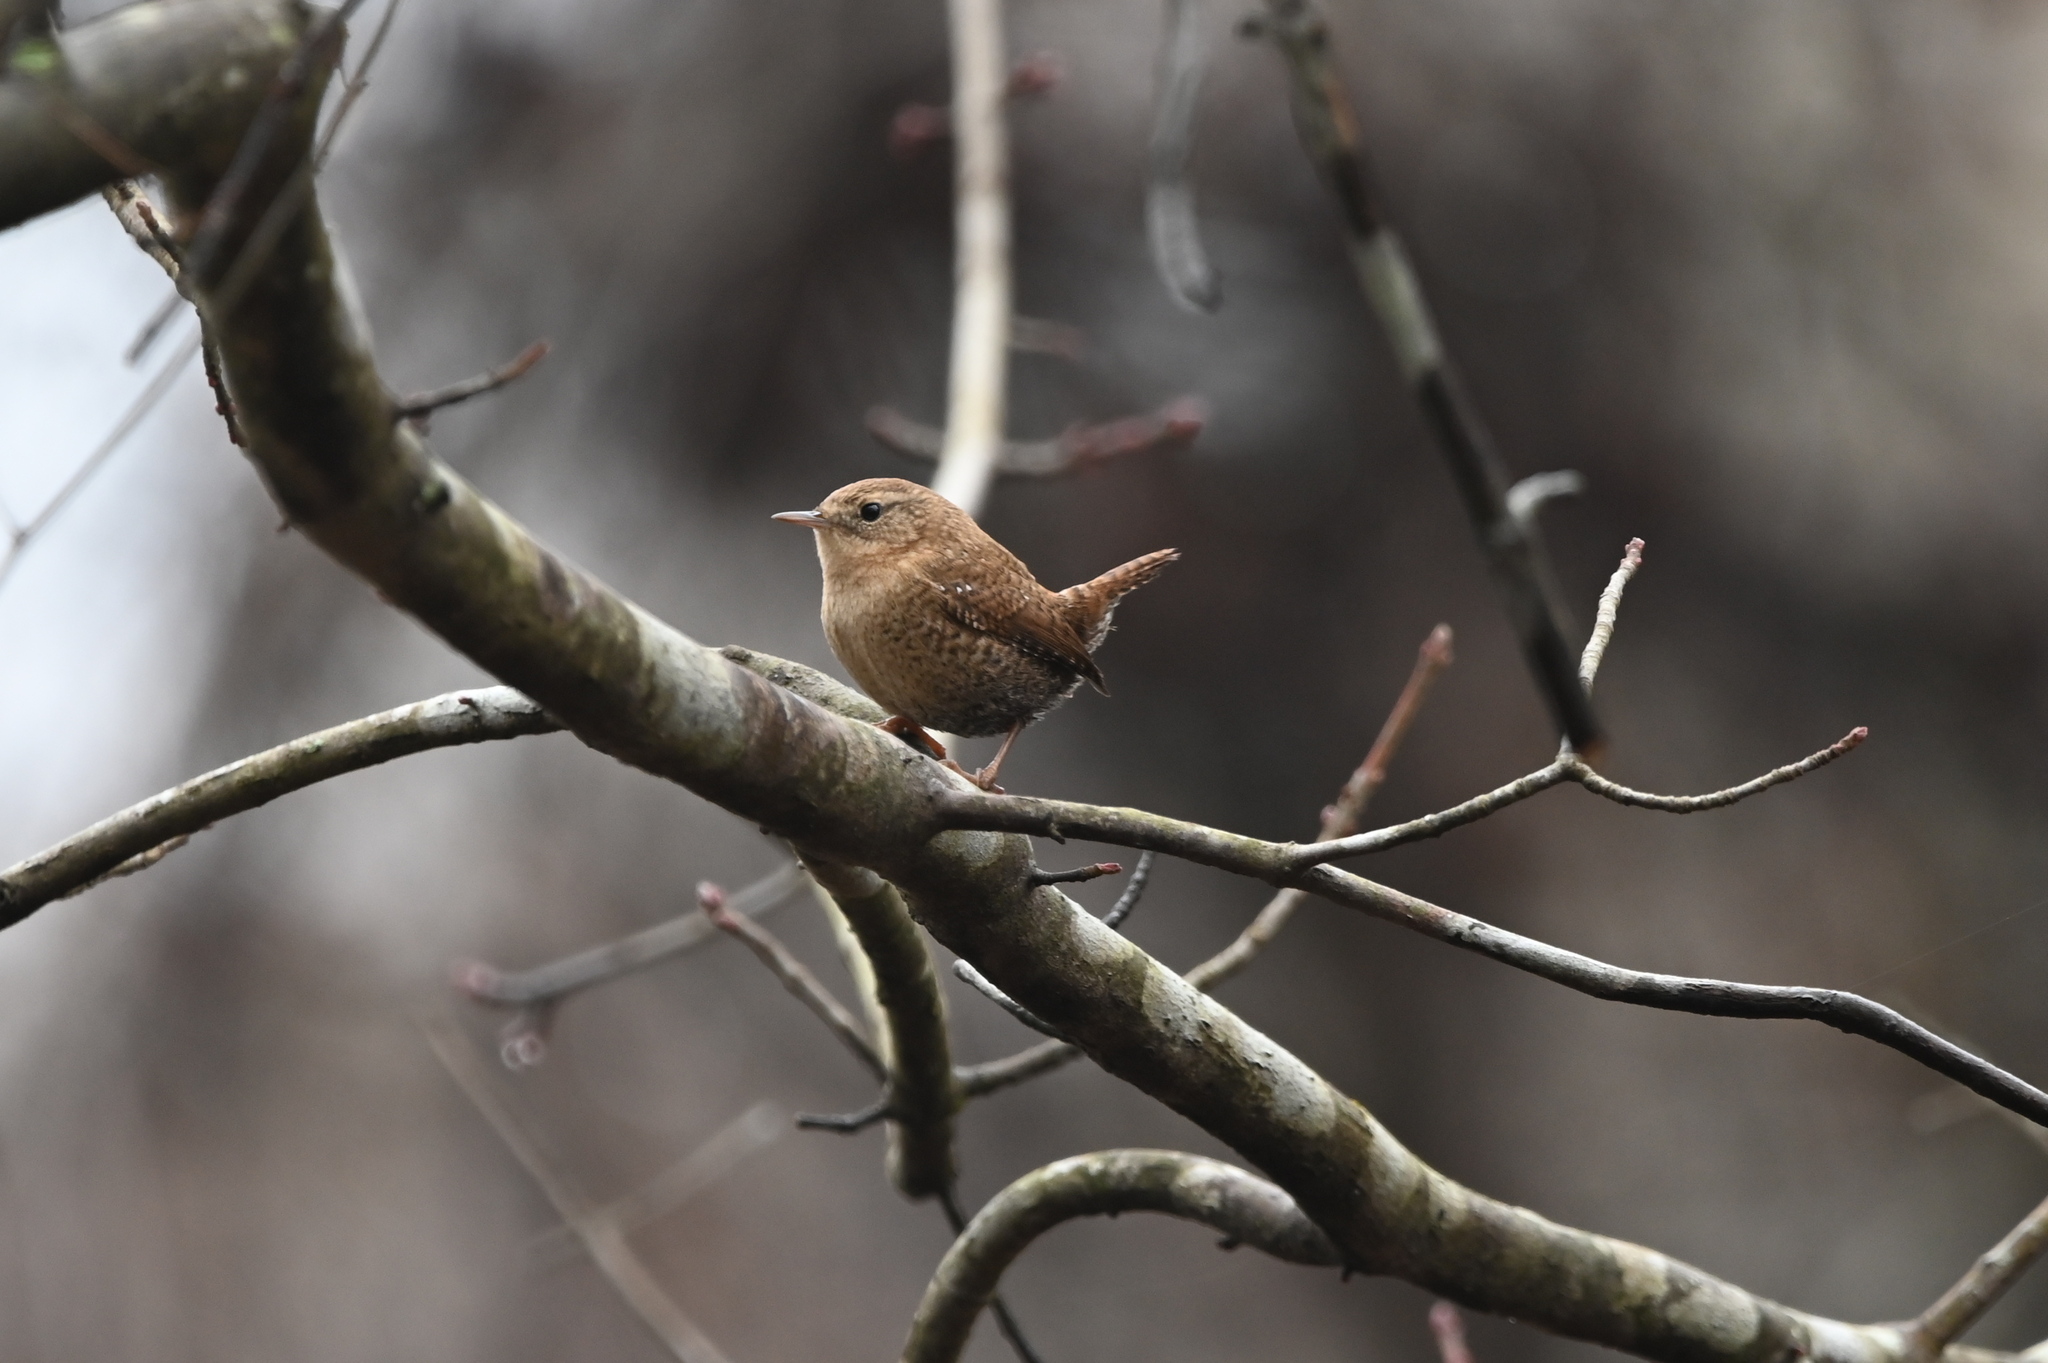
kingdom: Animalia
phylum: Chordata
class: Aves
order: Passeriformes
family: Troglodytidae
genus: Troglodytes
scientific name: Troglodytes hiemalis
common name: Winter wren
